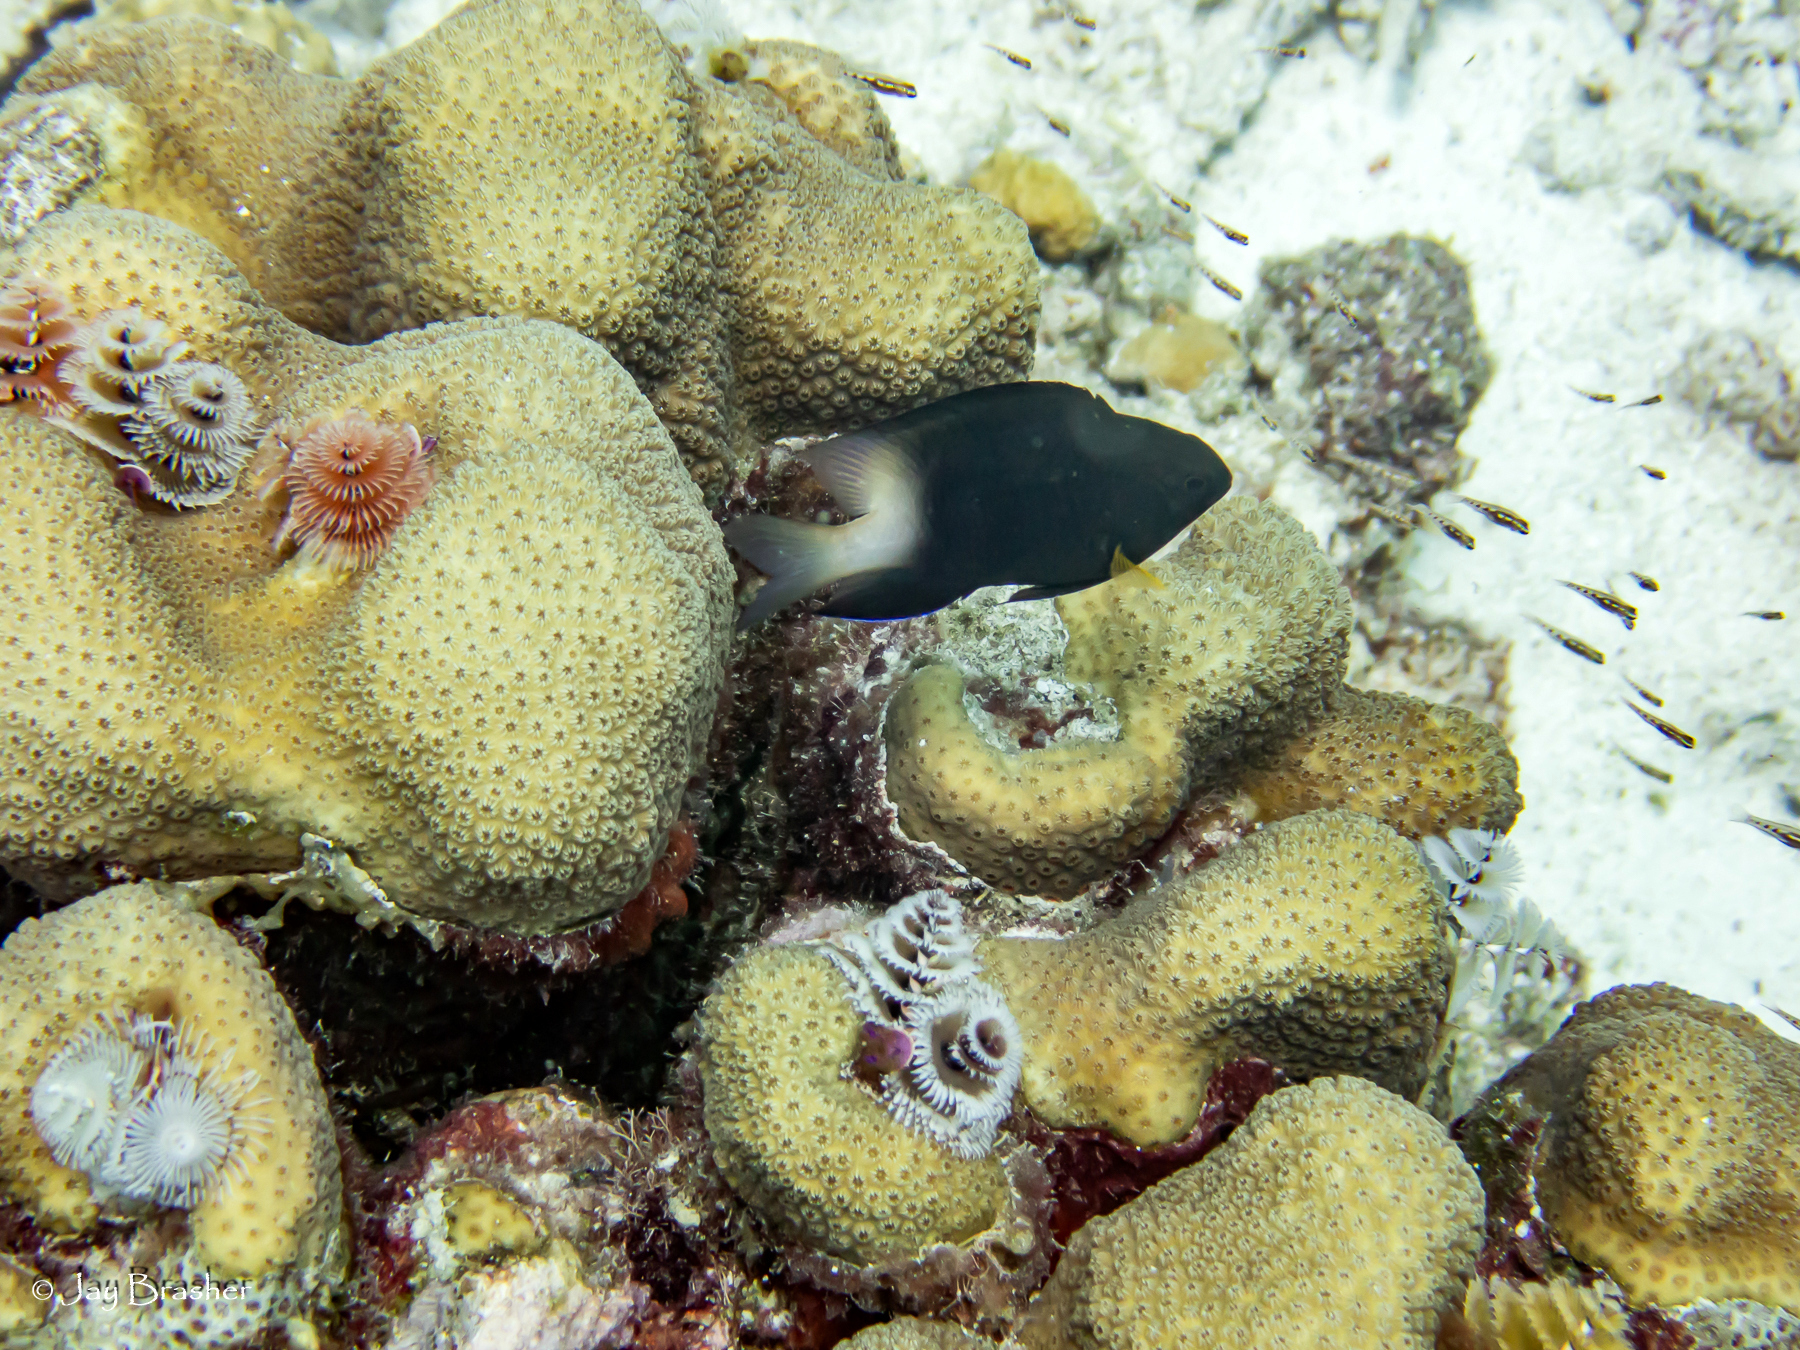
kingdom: Animalia
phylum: Chordata
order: Perciformes
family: Pomacentridae
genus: Stegastes
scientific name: Stegastes partitus
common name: Bicolor damselfish
